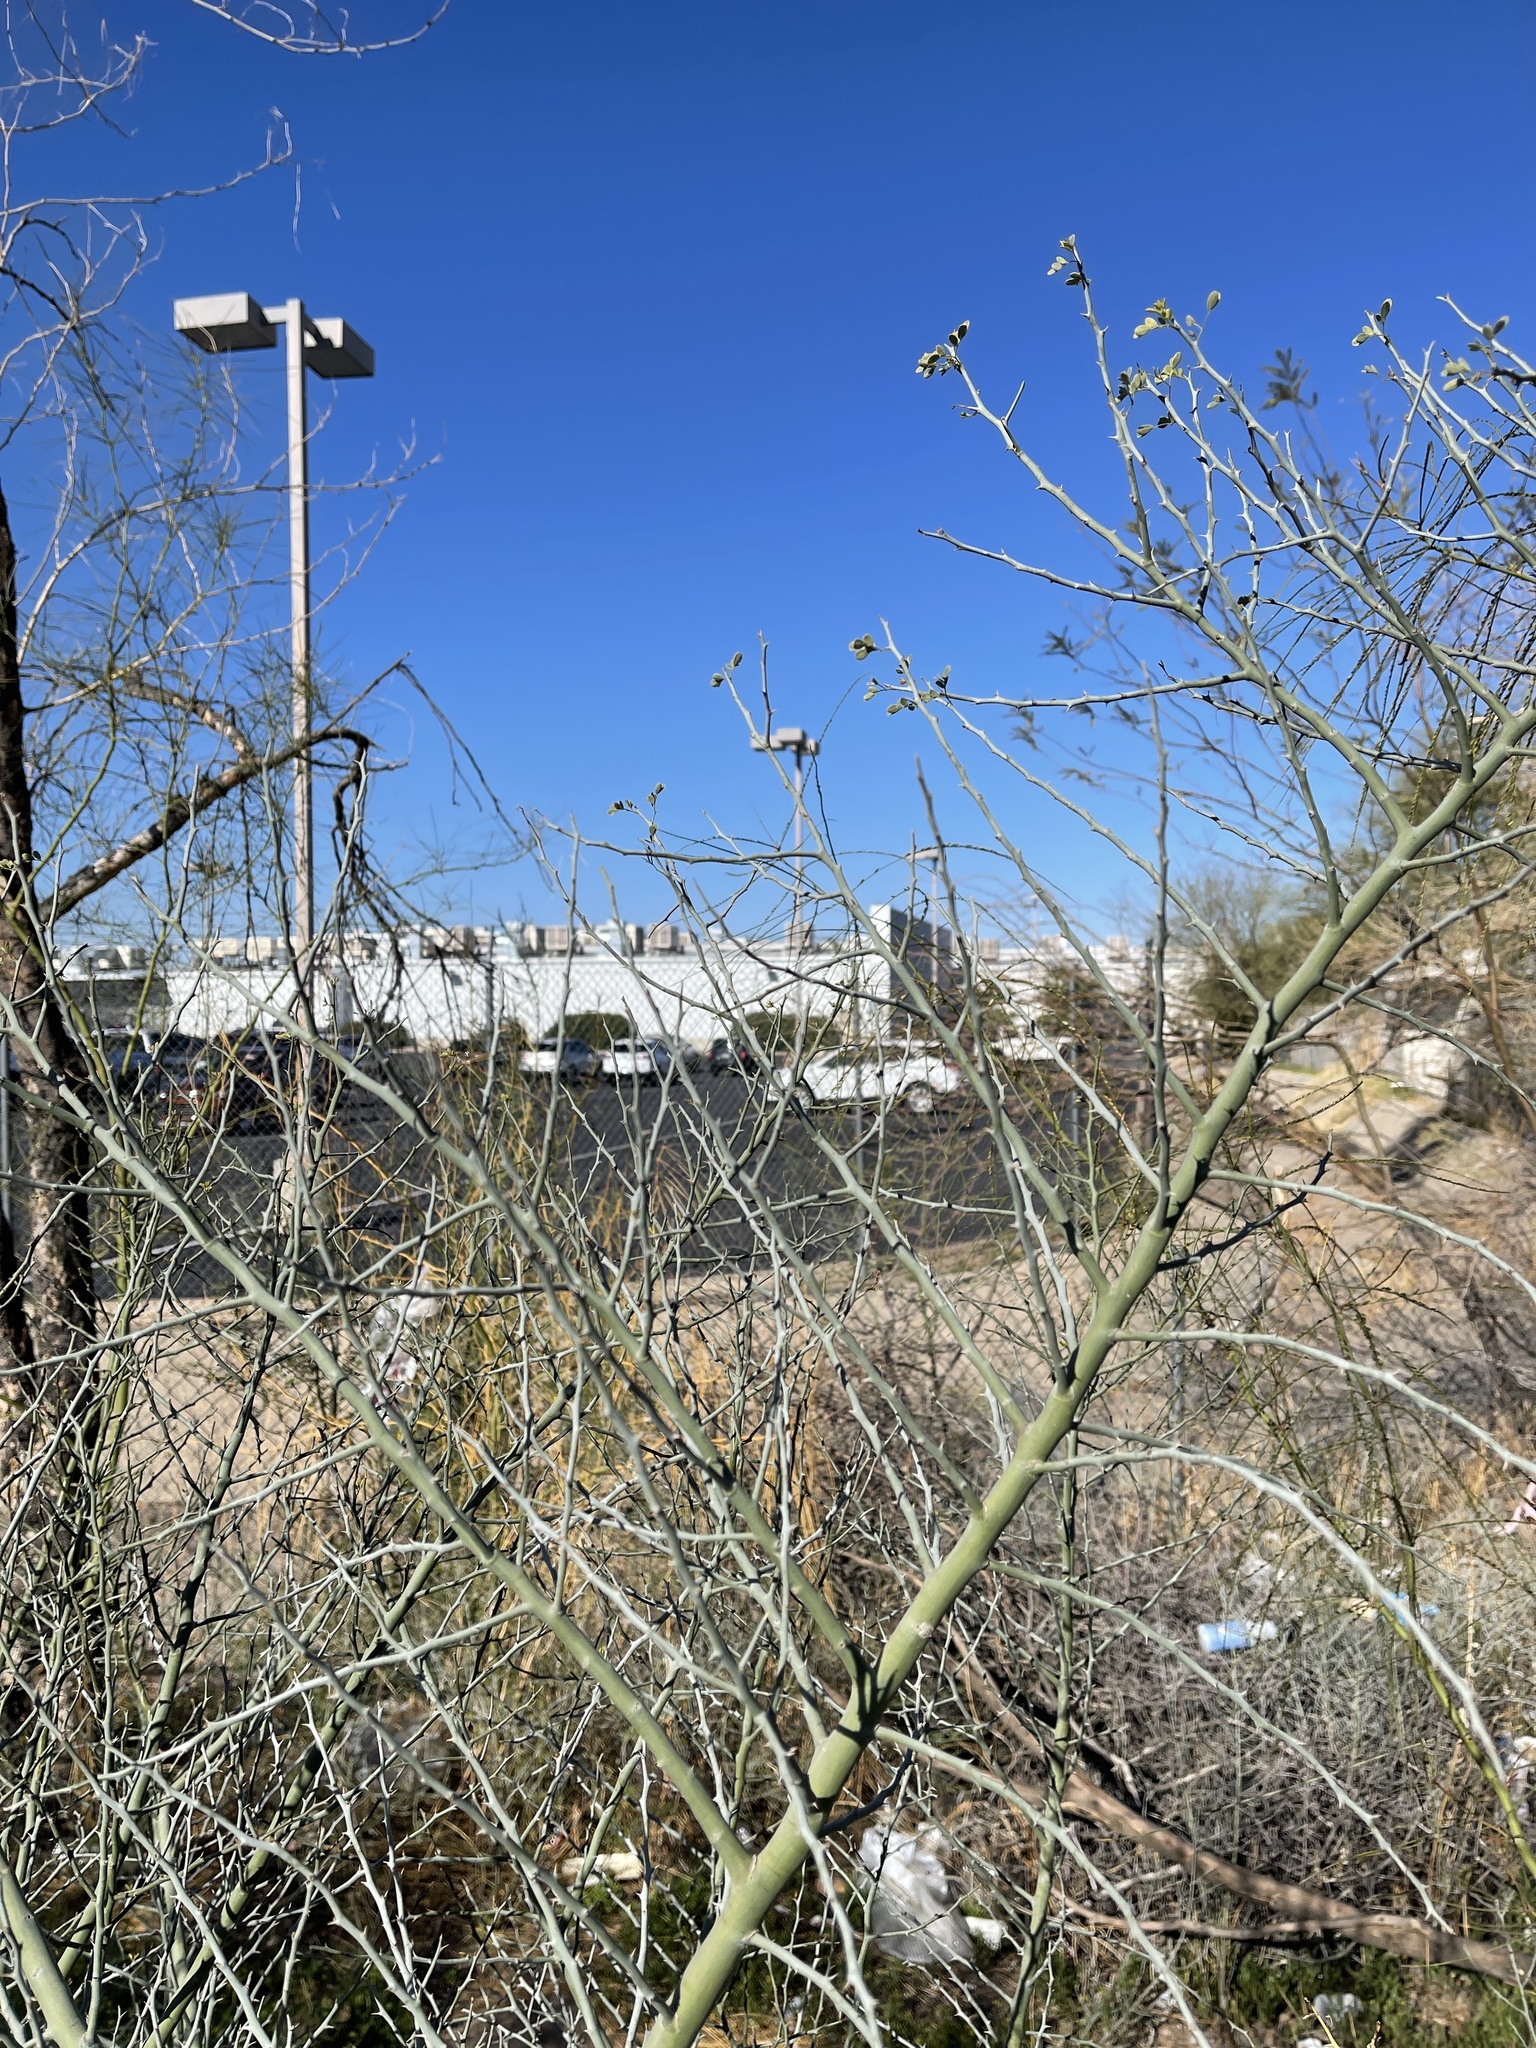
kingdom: Plantae
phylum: Tracheophyta
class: Magnoliopsida
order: Fabales
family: Fabaceae
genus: Parkinsonia
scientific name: Parkinsonia florida
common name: Blue paloverde
